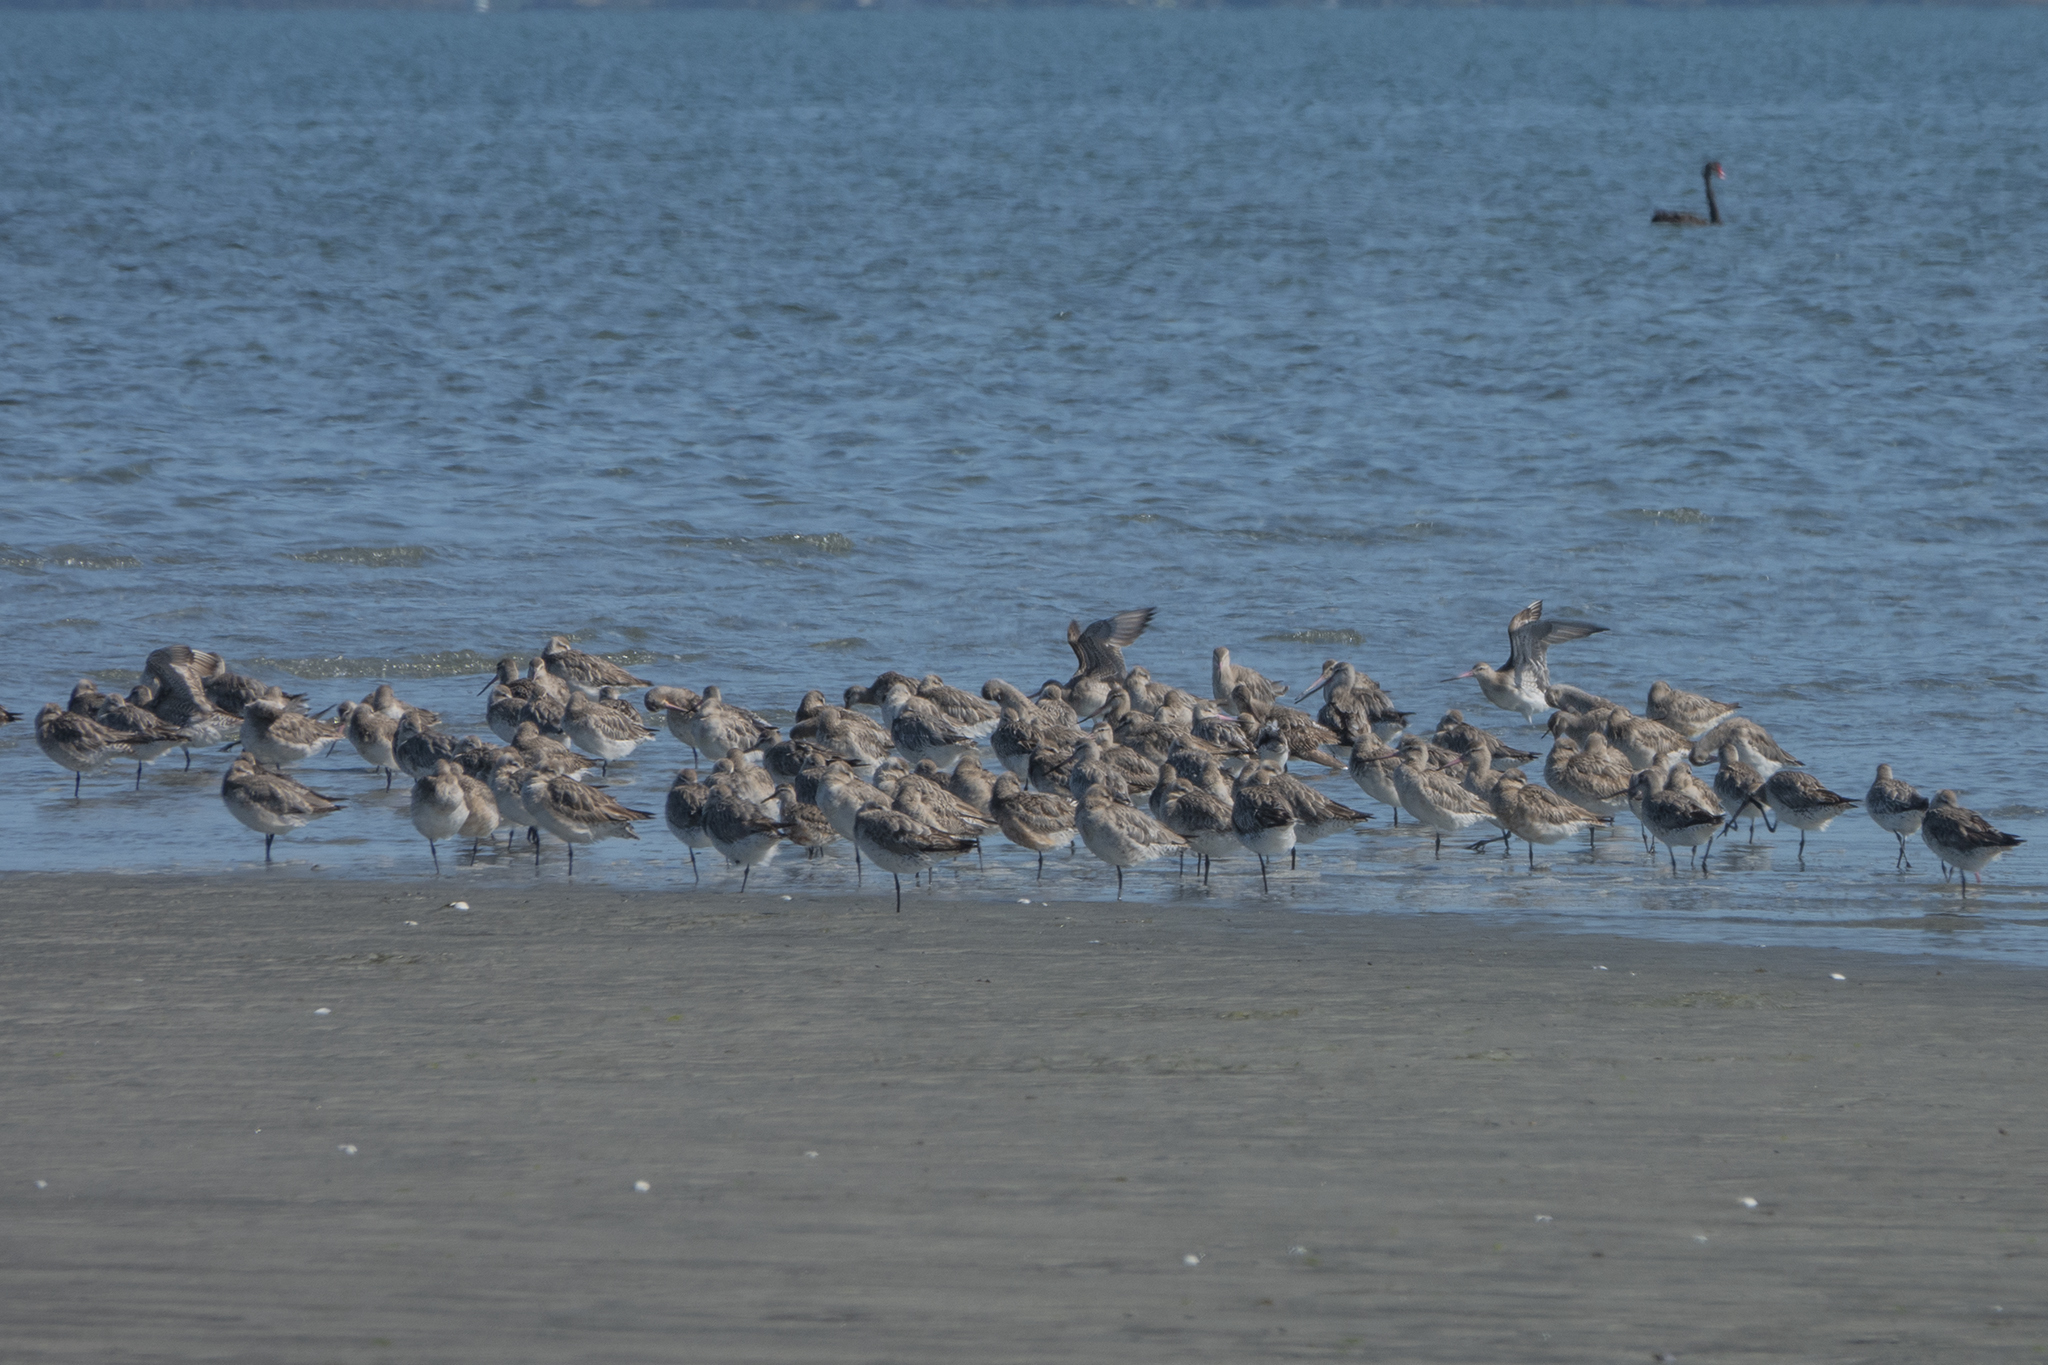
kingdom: Animalia
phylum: Chordata
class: Aves
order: Charadriiformes
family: Scolopacidae
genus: Limosa
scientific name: Limosa lapponica
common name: Bar-tailed godwit
